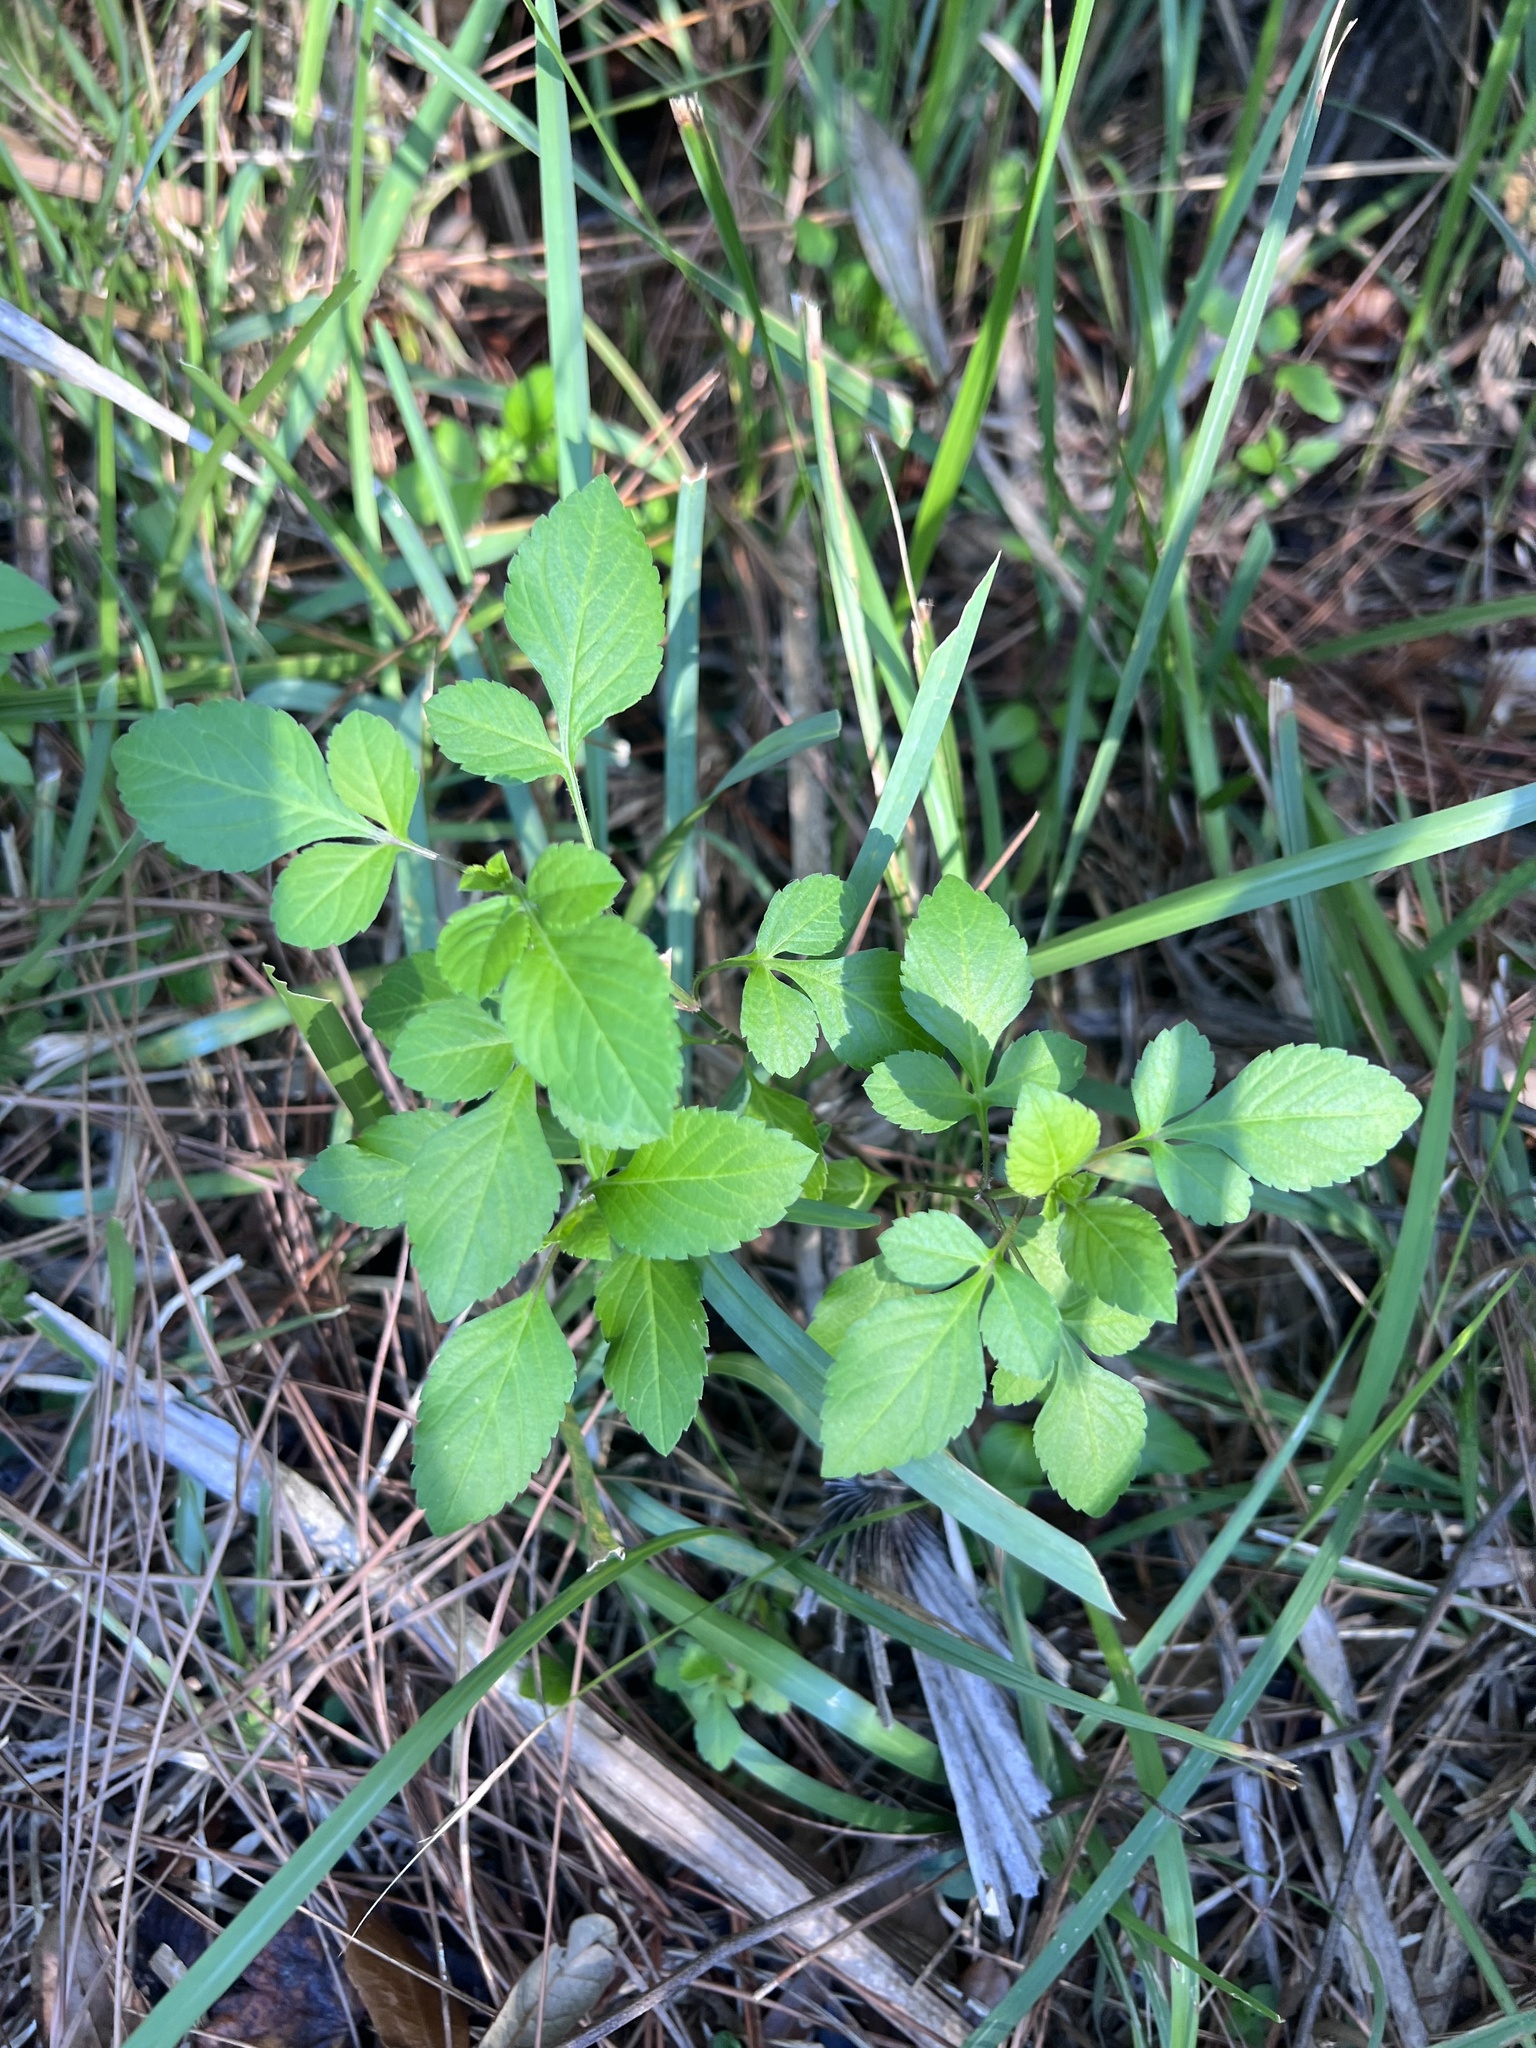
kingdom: Plantae
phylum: Tracheophyta
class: Magnoliopsida
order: Asterales
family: Asteraceae
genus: Bidens
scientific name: Bidens alba
